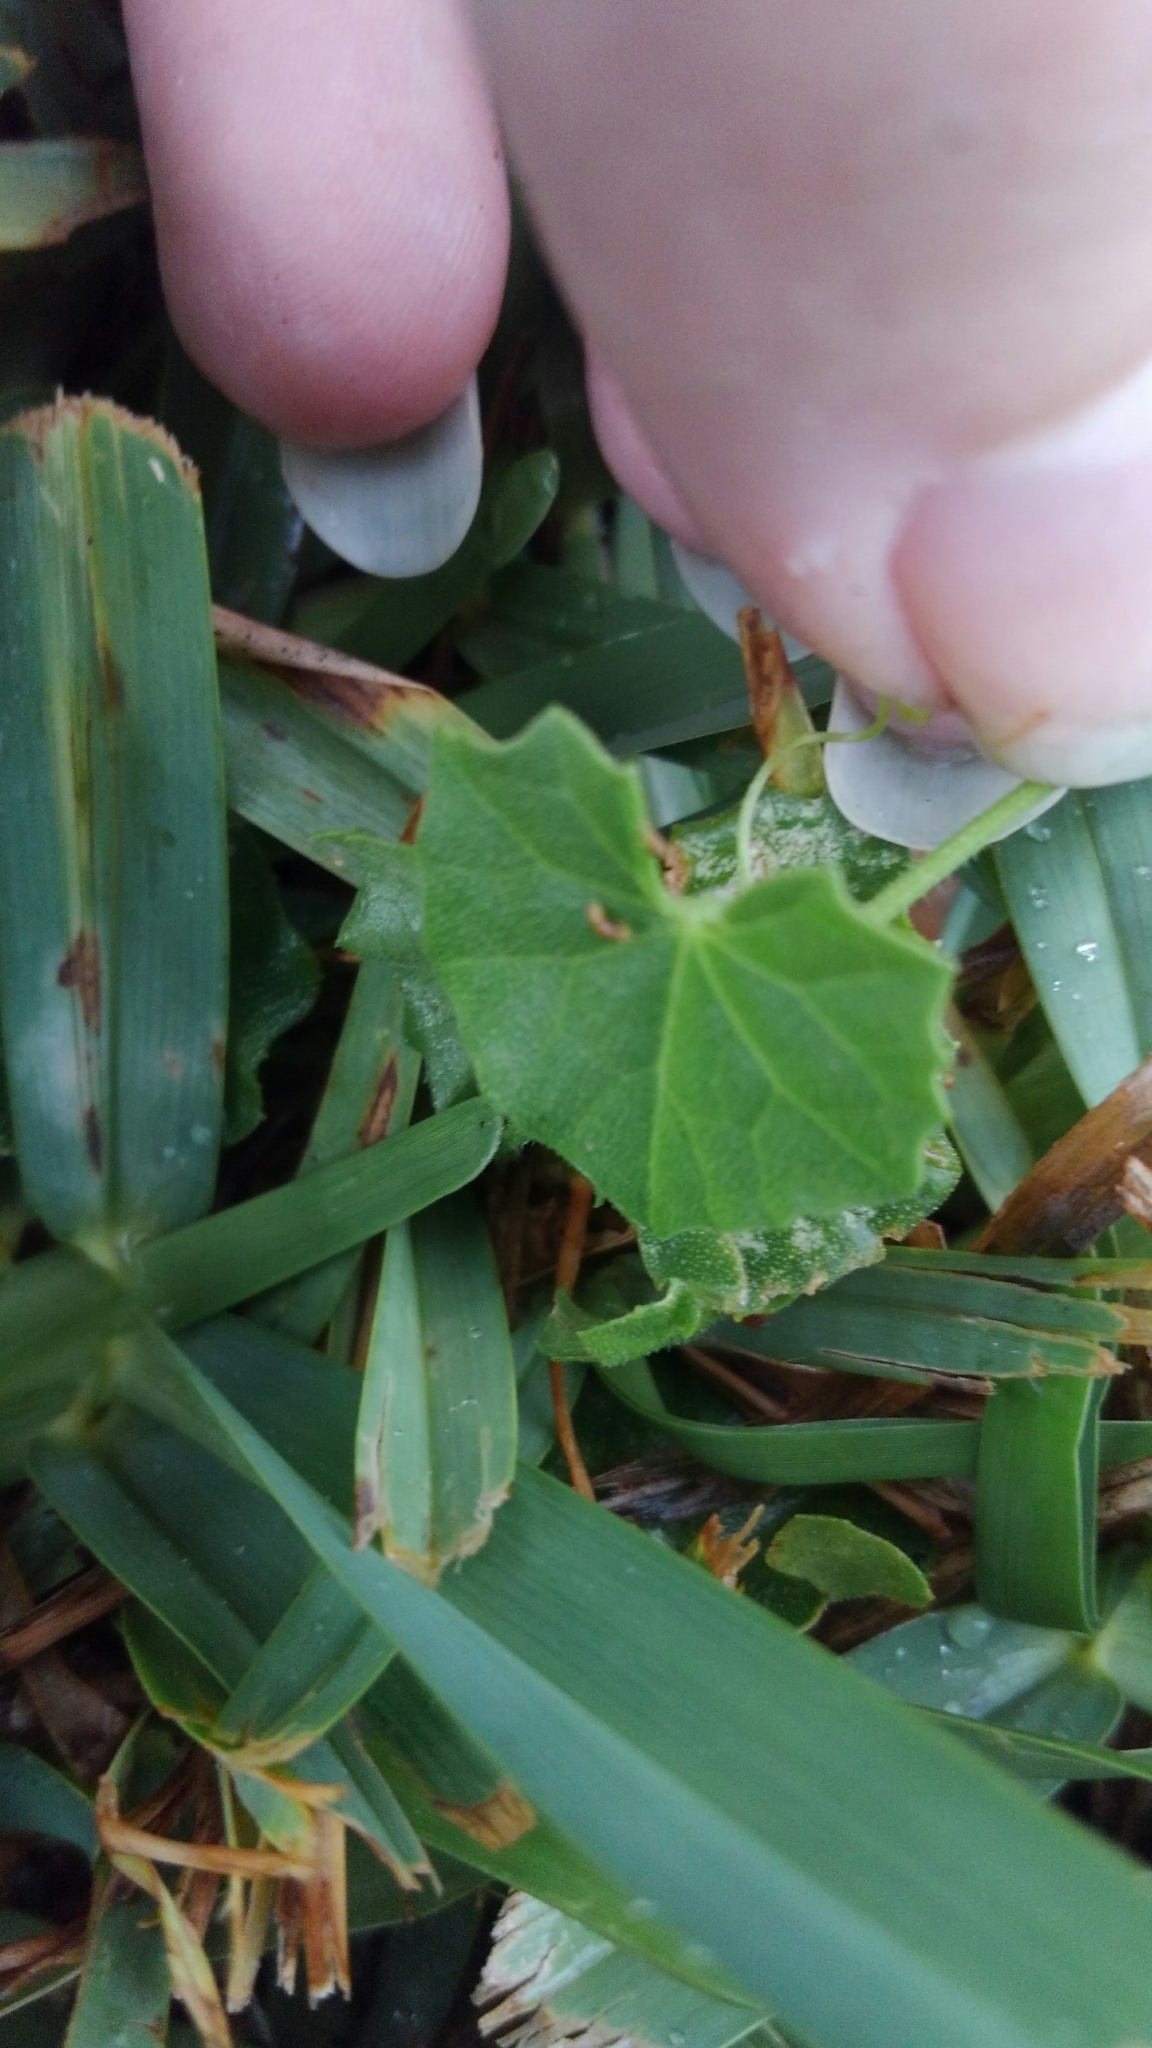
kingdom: Plantae
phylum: Tracheophyta
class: Magnoliopsida
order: Cucurbitales
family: Cucurbitaceae
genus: Melothria
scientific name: Melothria pendula
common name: Creeping-cucumber
